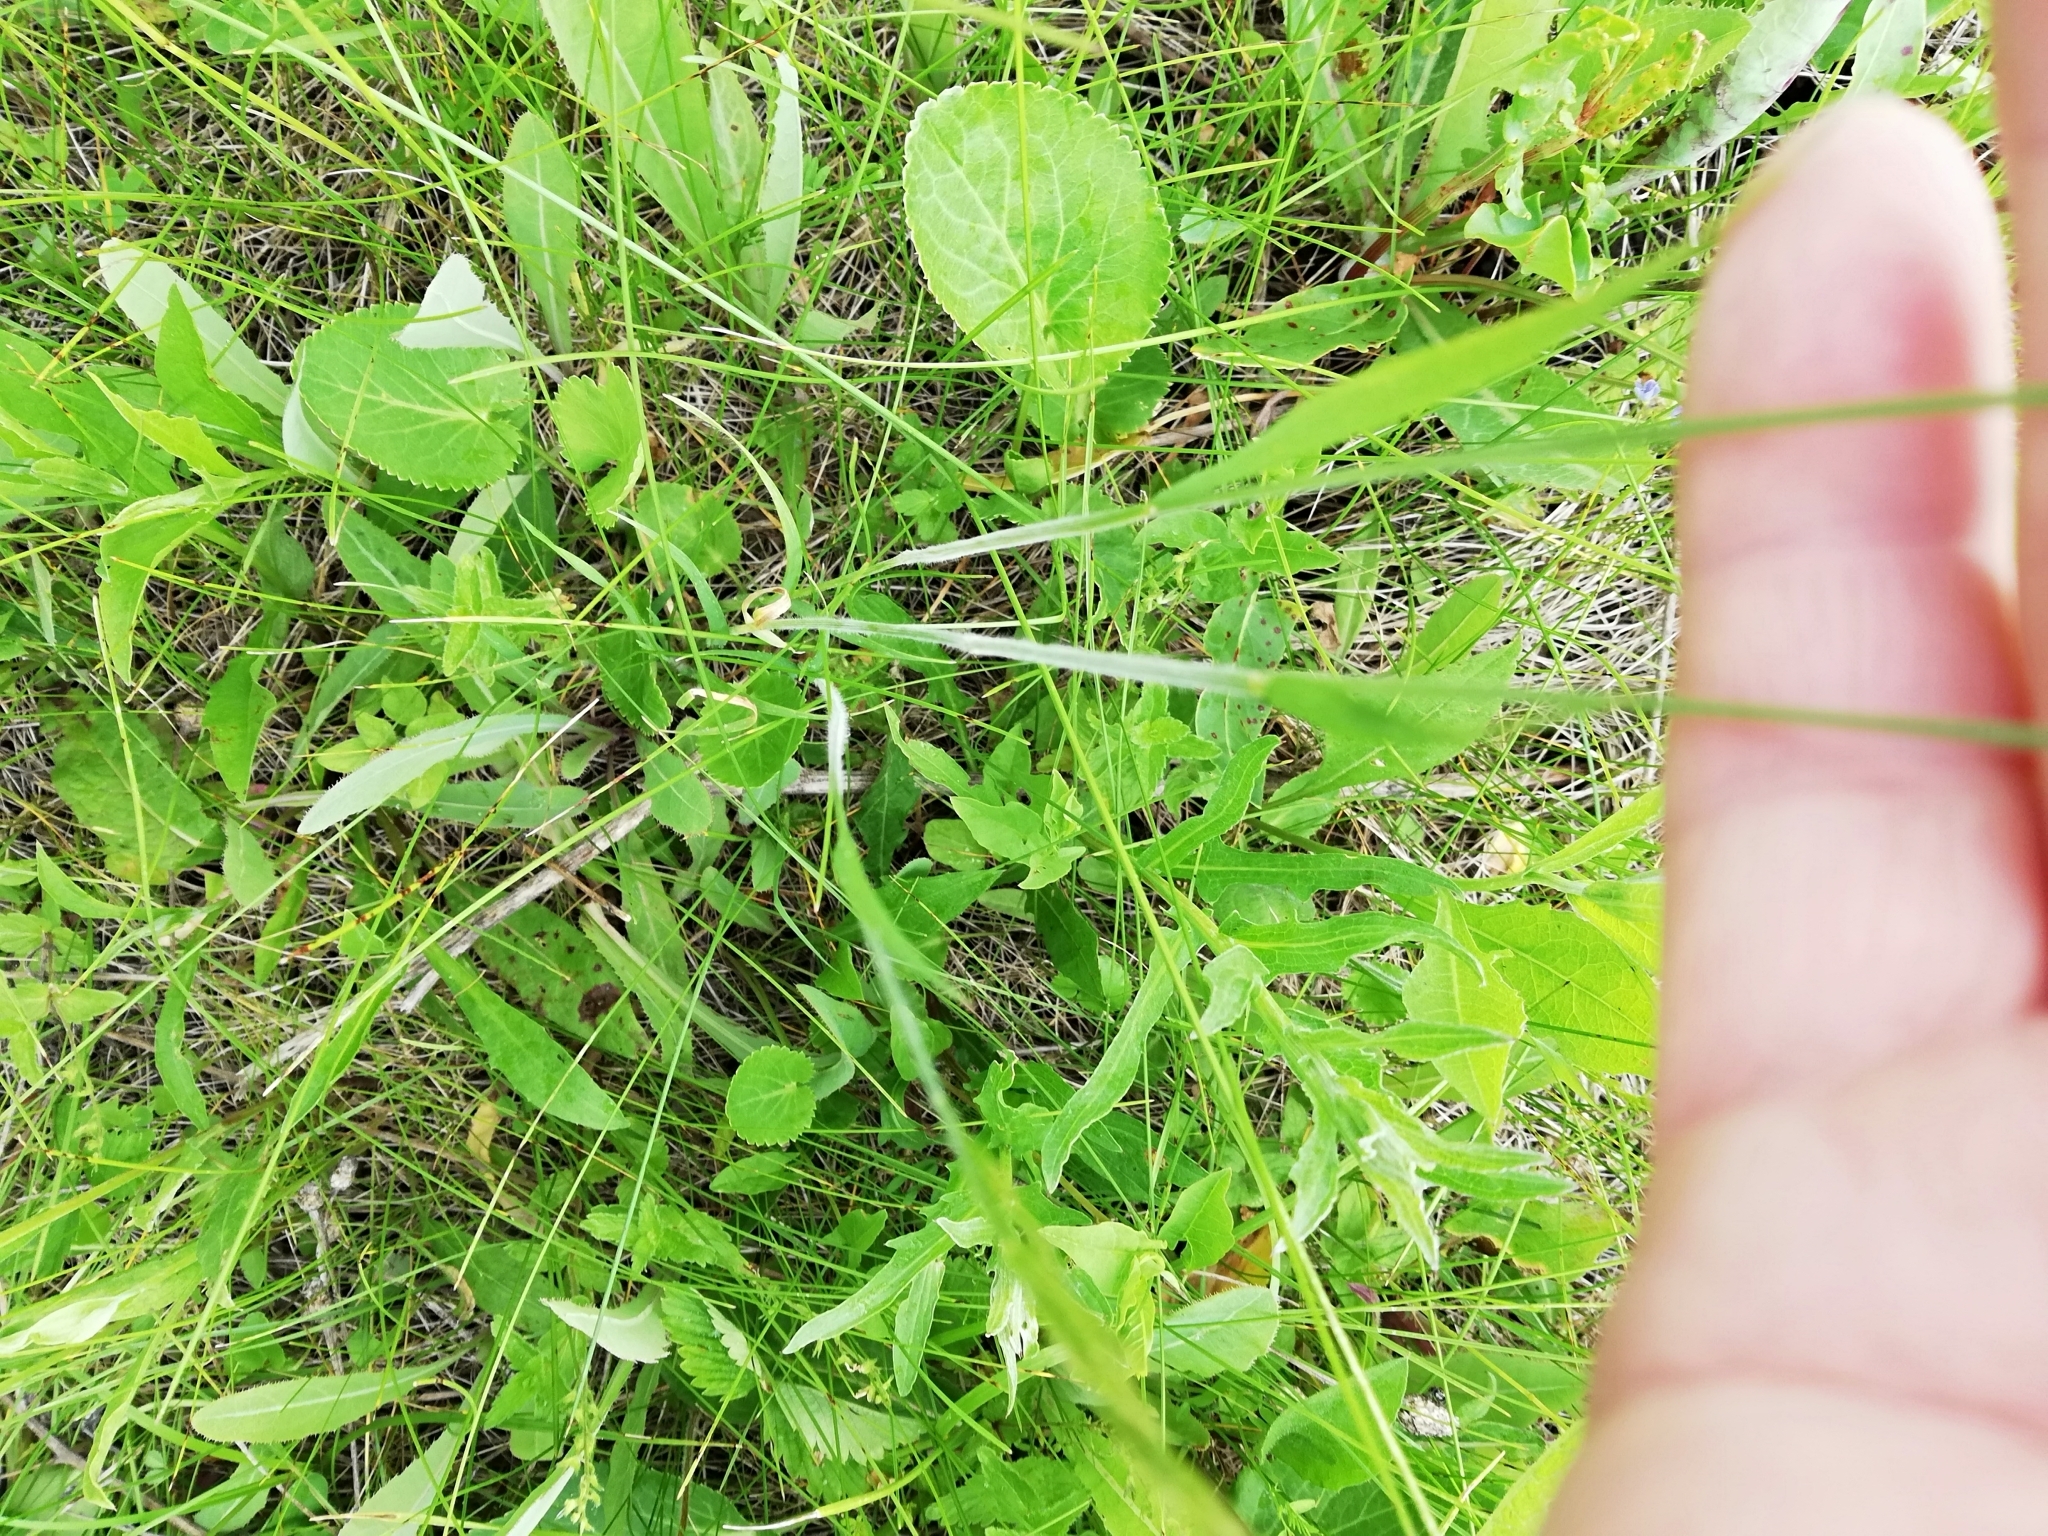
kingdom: Plantae
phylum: Tracheophyta
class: Liliopsida
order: Poales
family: Poaceae
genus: Trisetum
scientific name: Trisetum flavescens
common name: Yellow oat-grass
